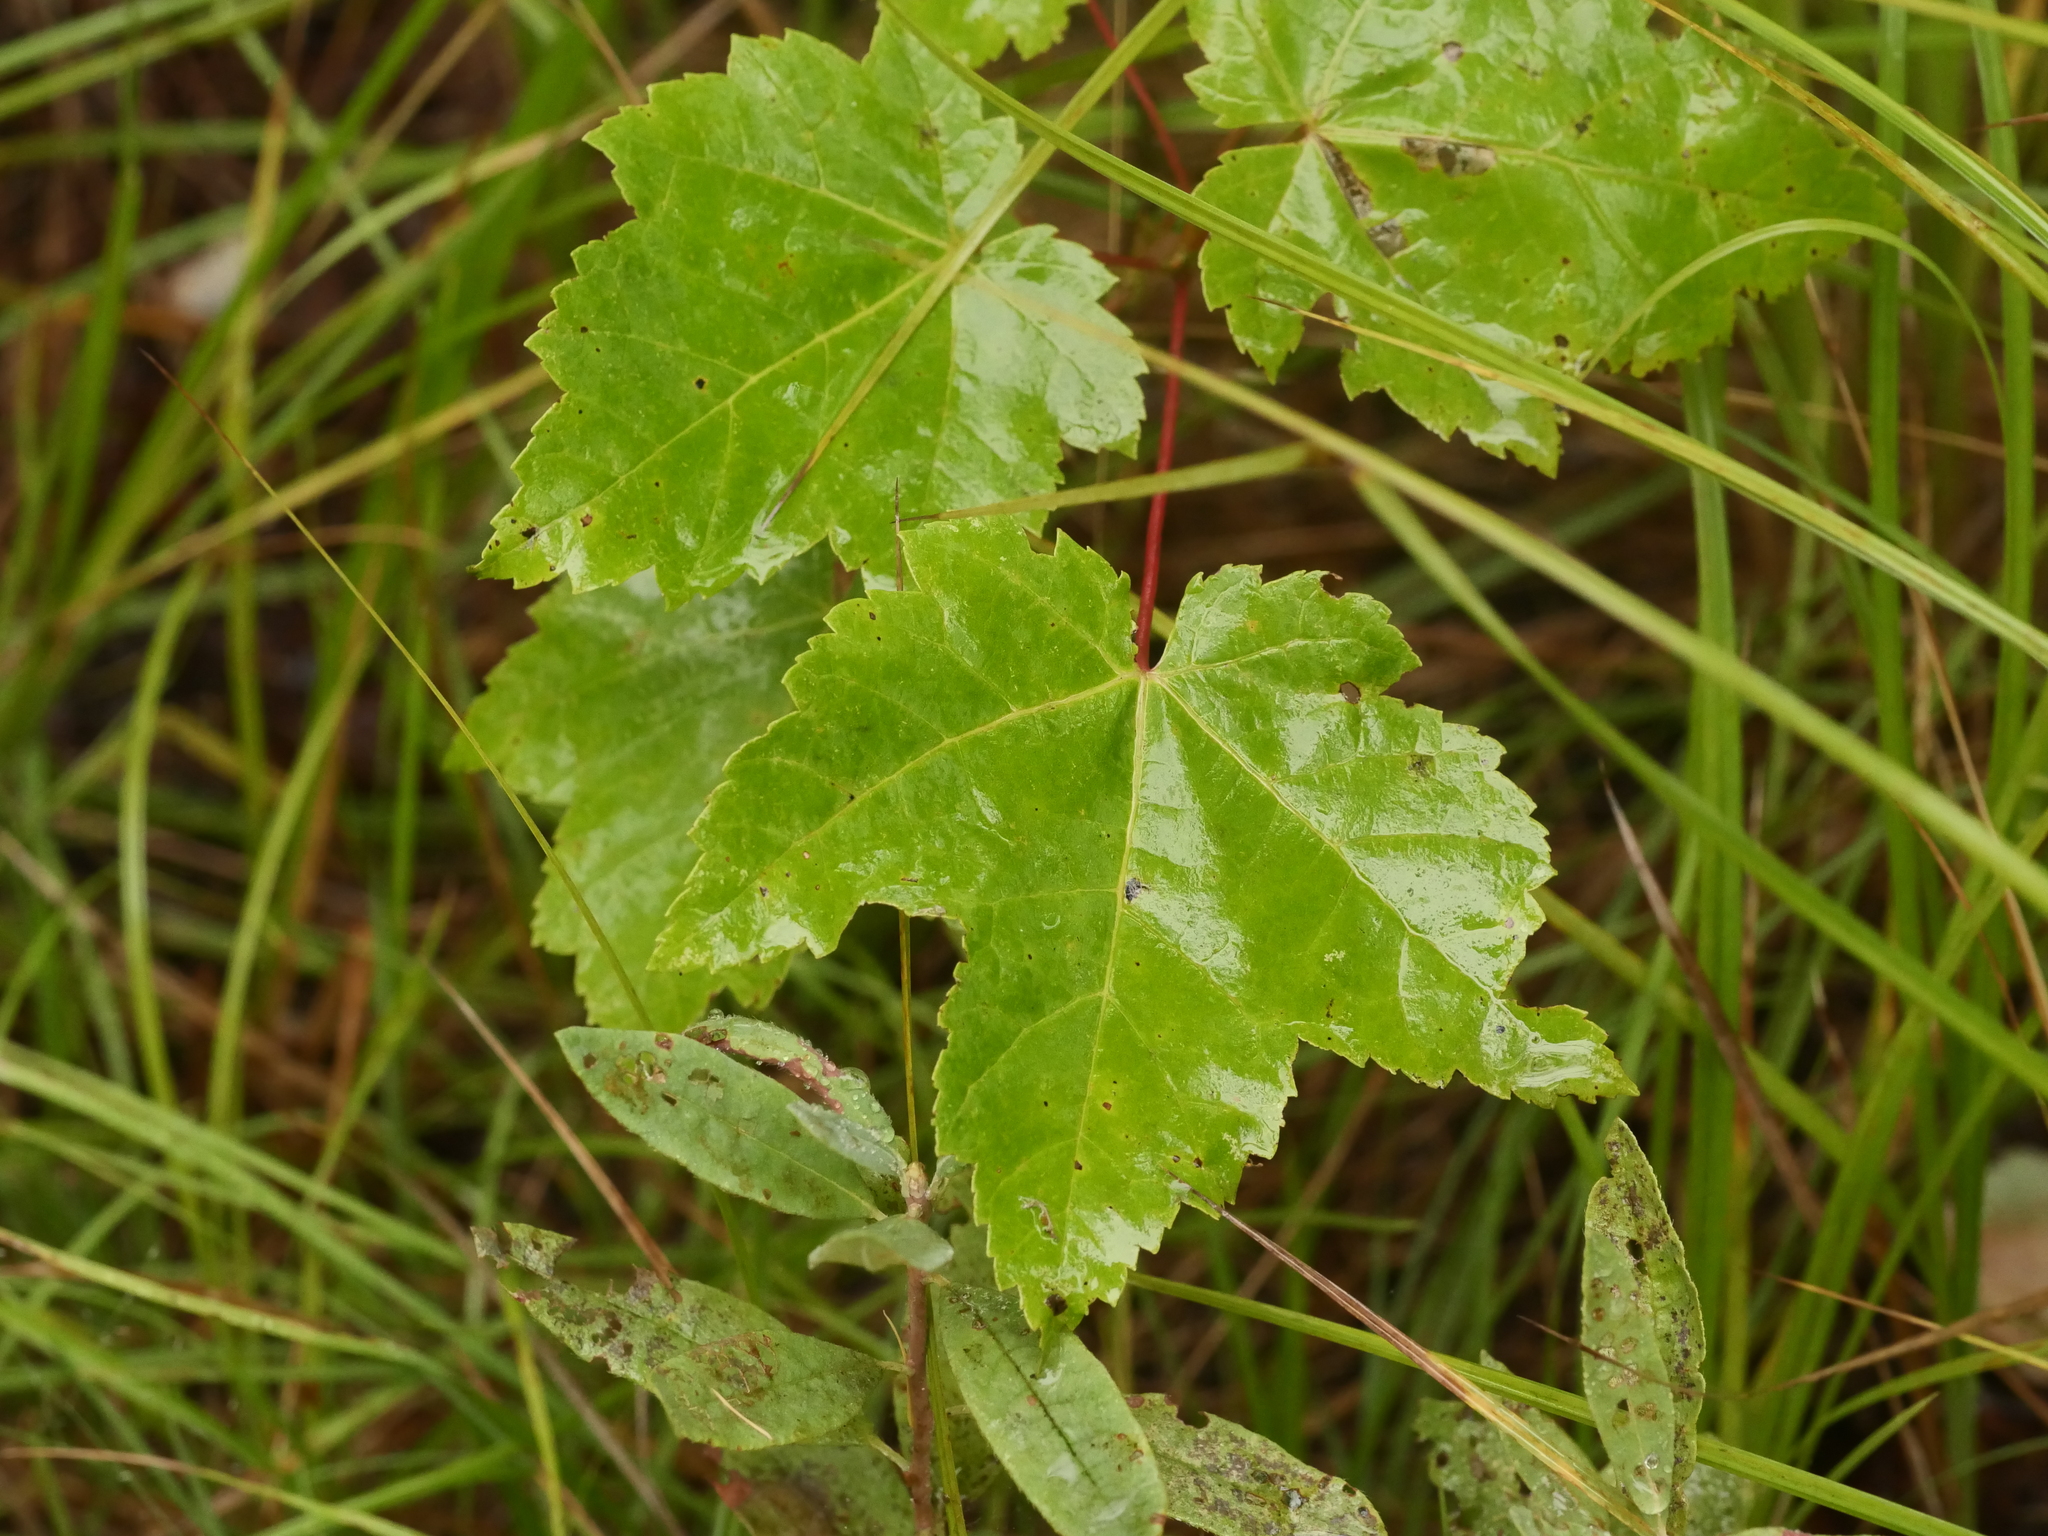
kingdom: Plantae
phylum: Tracheophyta
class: Magnoliopsida
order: Sapindales
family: Sapindaceae
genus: Acer
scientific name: Acer rubrum
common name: Red maple
